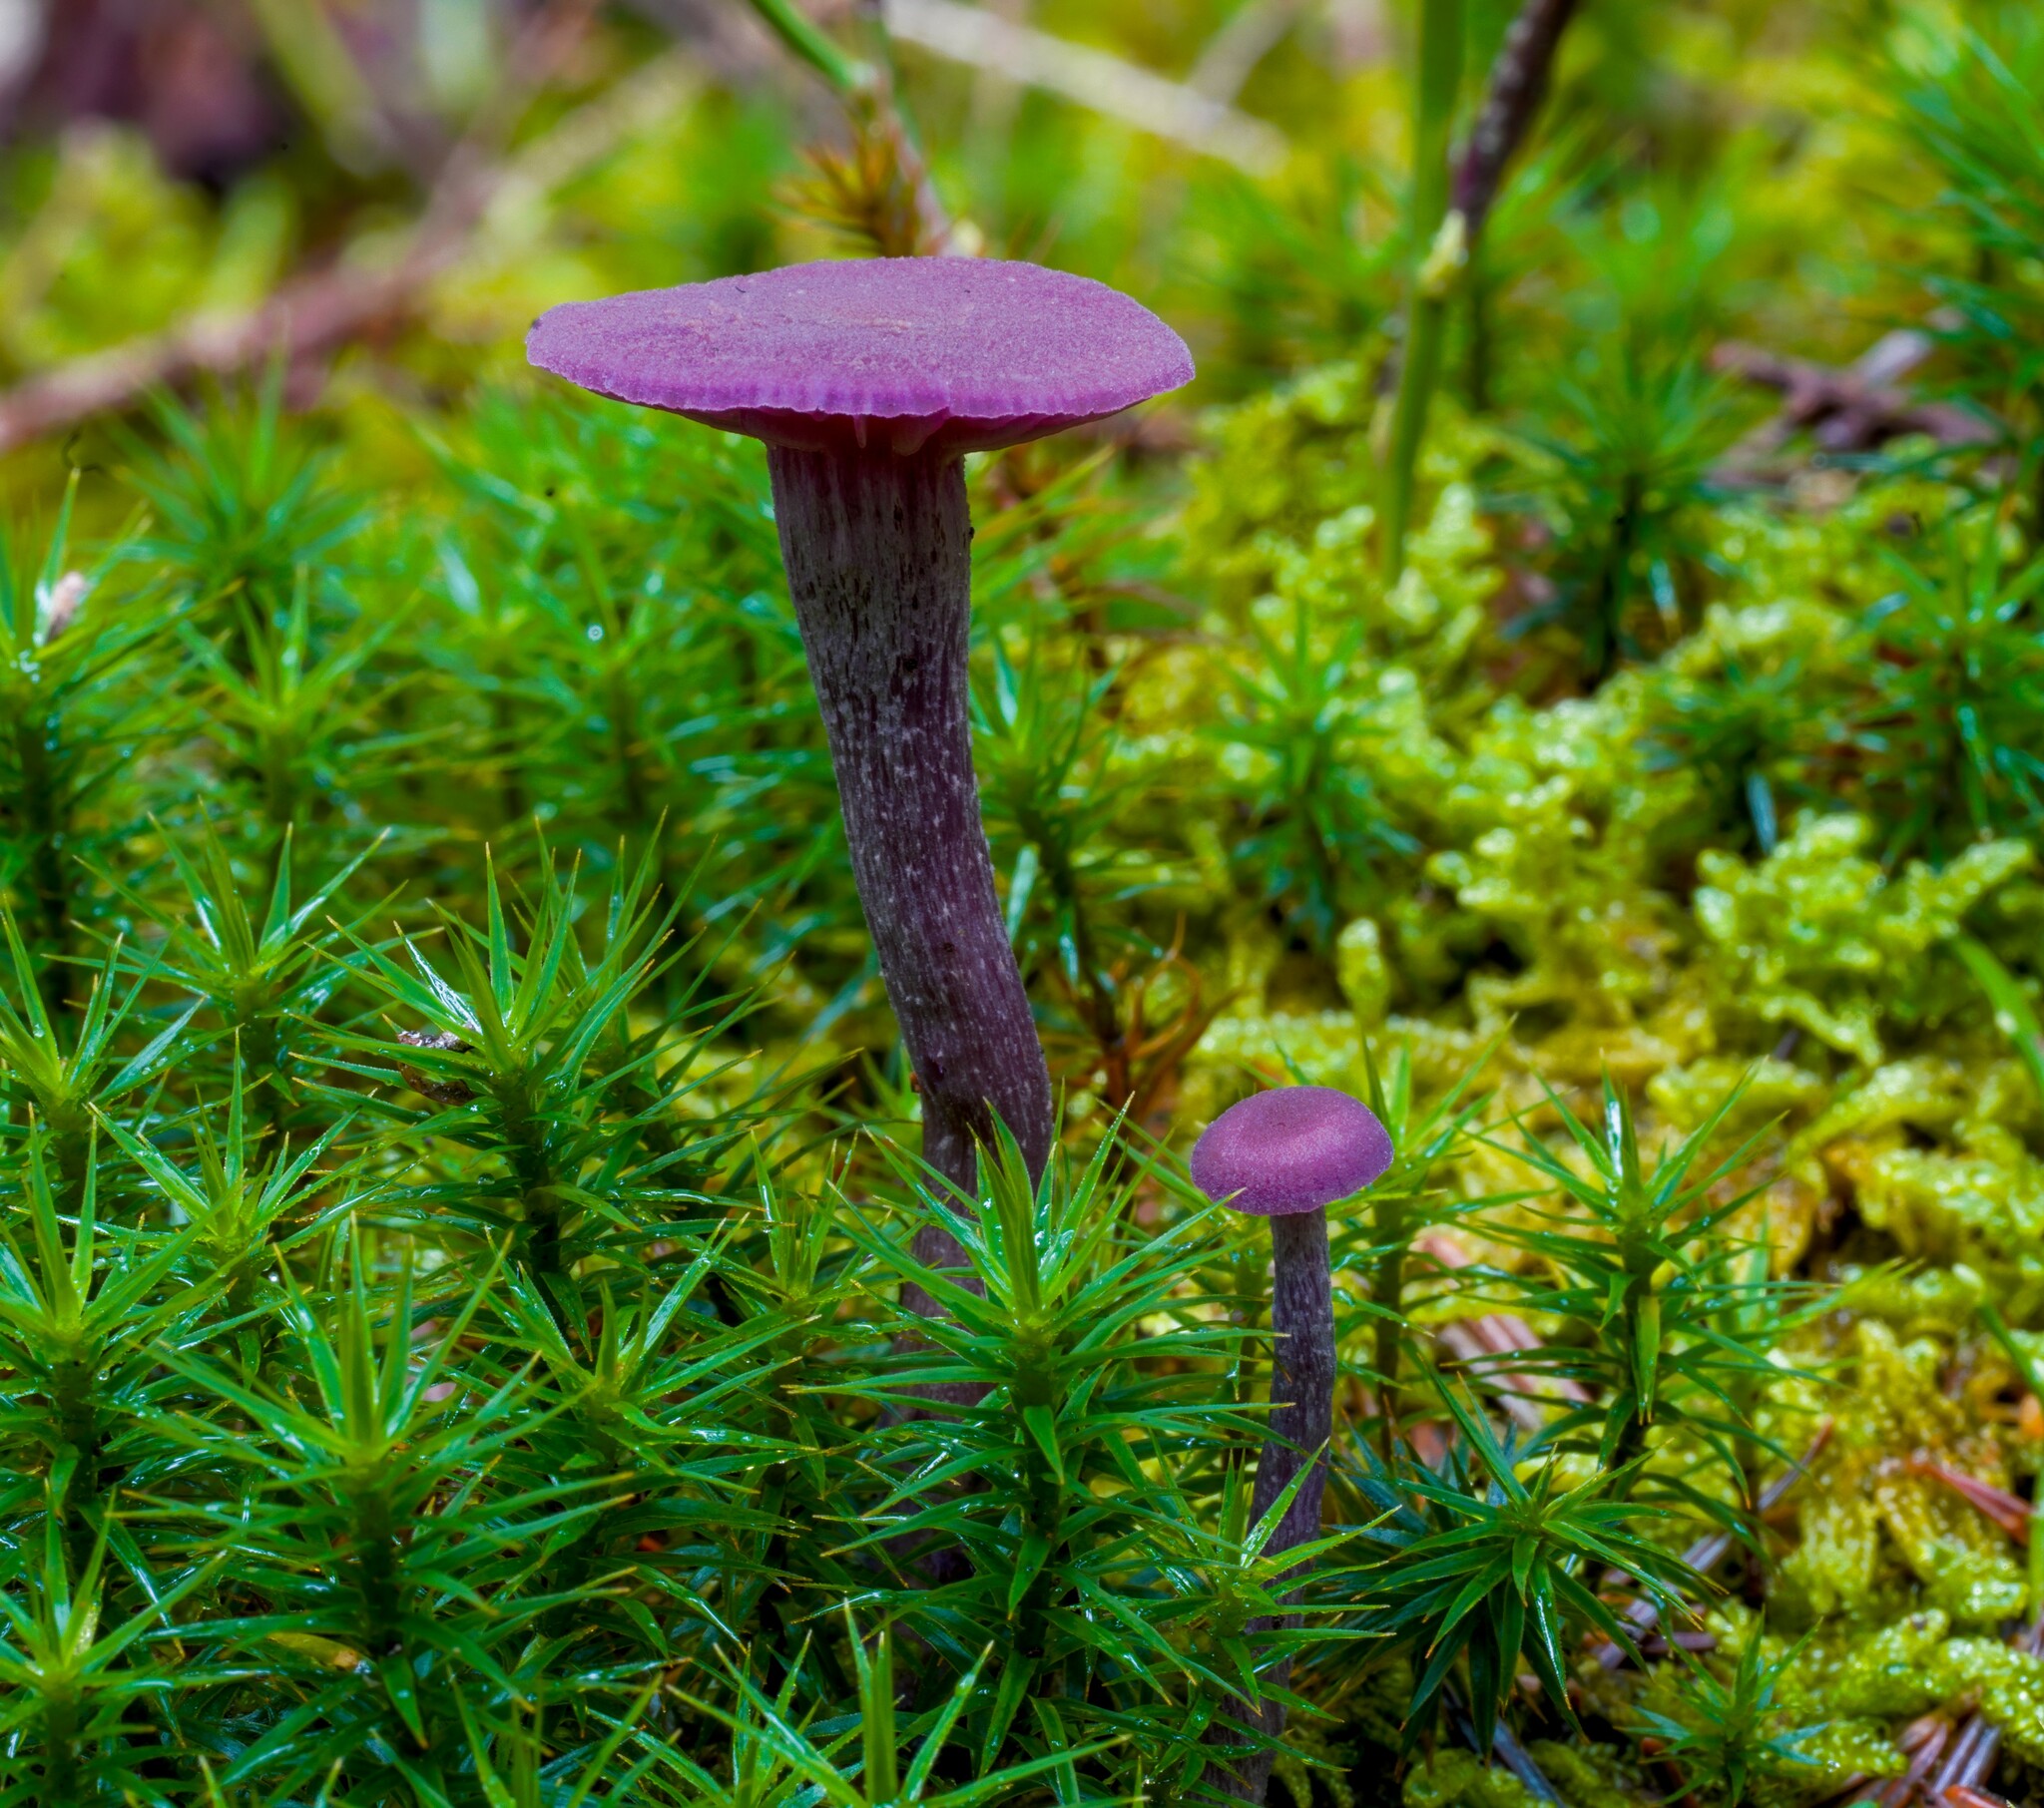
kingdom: Fungi
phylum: Basidiomycota
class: Agaricomycetes
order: Agaricales
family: Hydnangiaceae
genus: Laccaria
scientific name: Laccaria amethystina
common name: Amethyst deceiver
